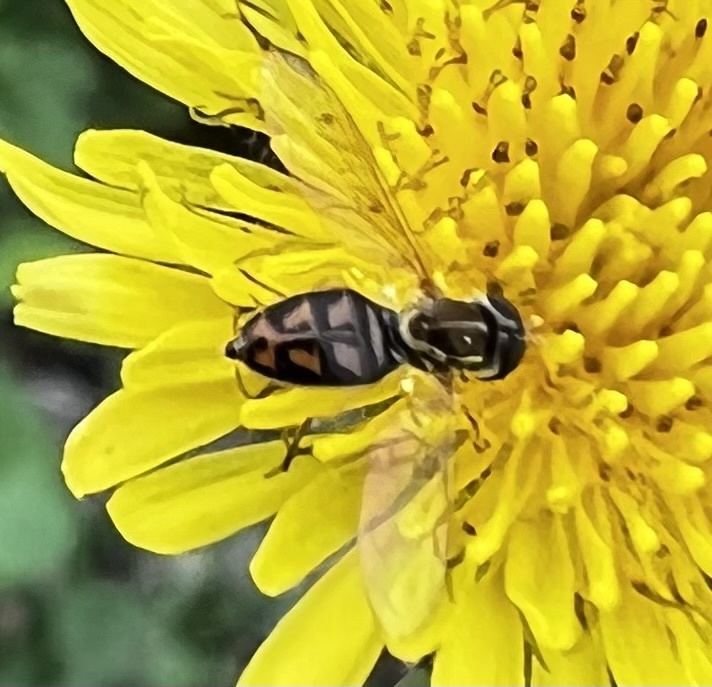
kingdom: Animalia
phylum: Arthropoda
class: Insecta
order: Diptera
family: Syrphidae
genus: Toxomerus
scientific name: Toxomerus marginatus
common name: Syrphid fly
